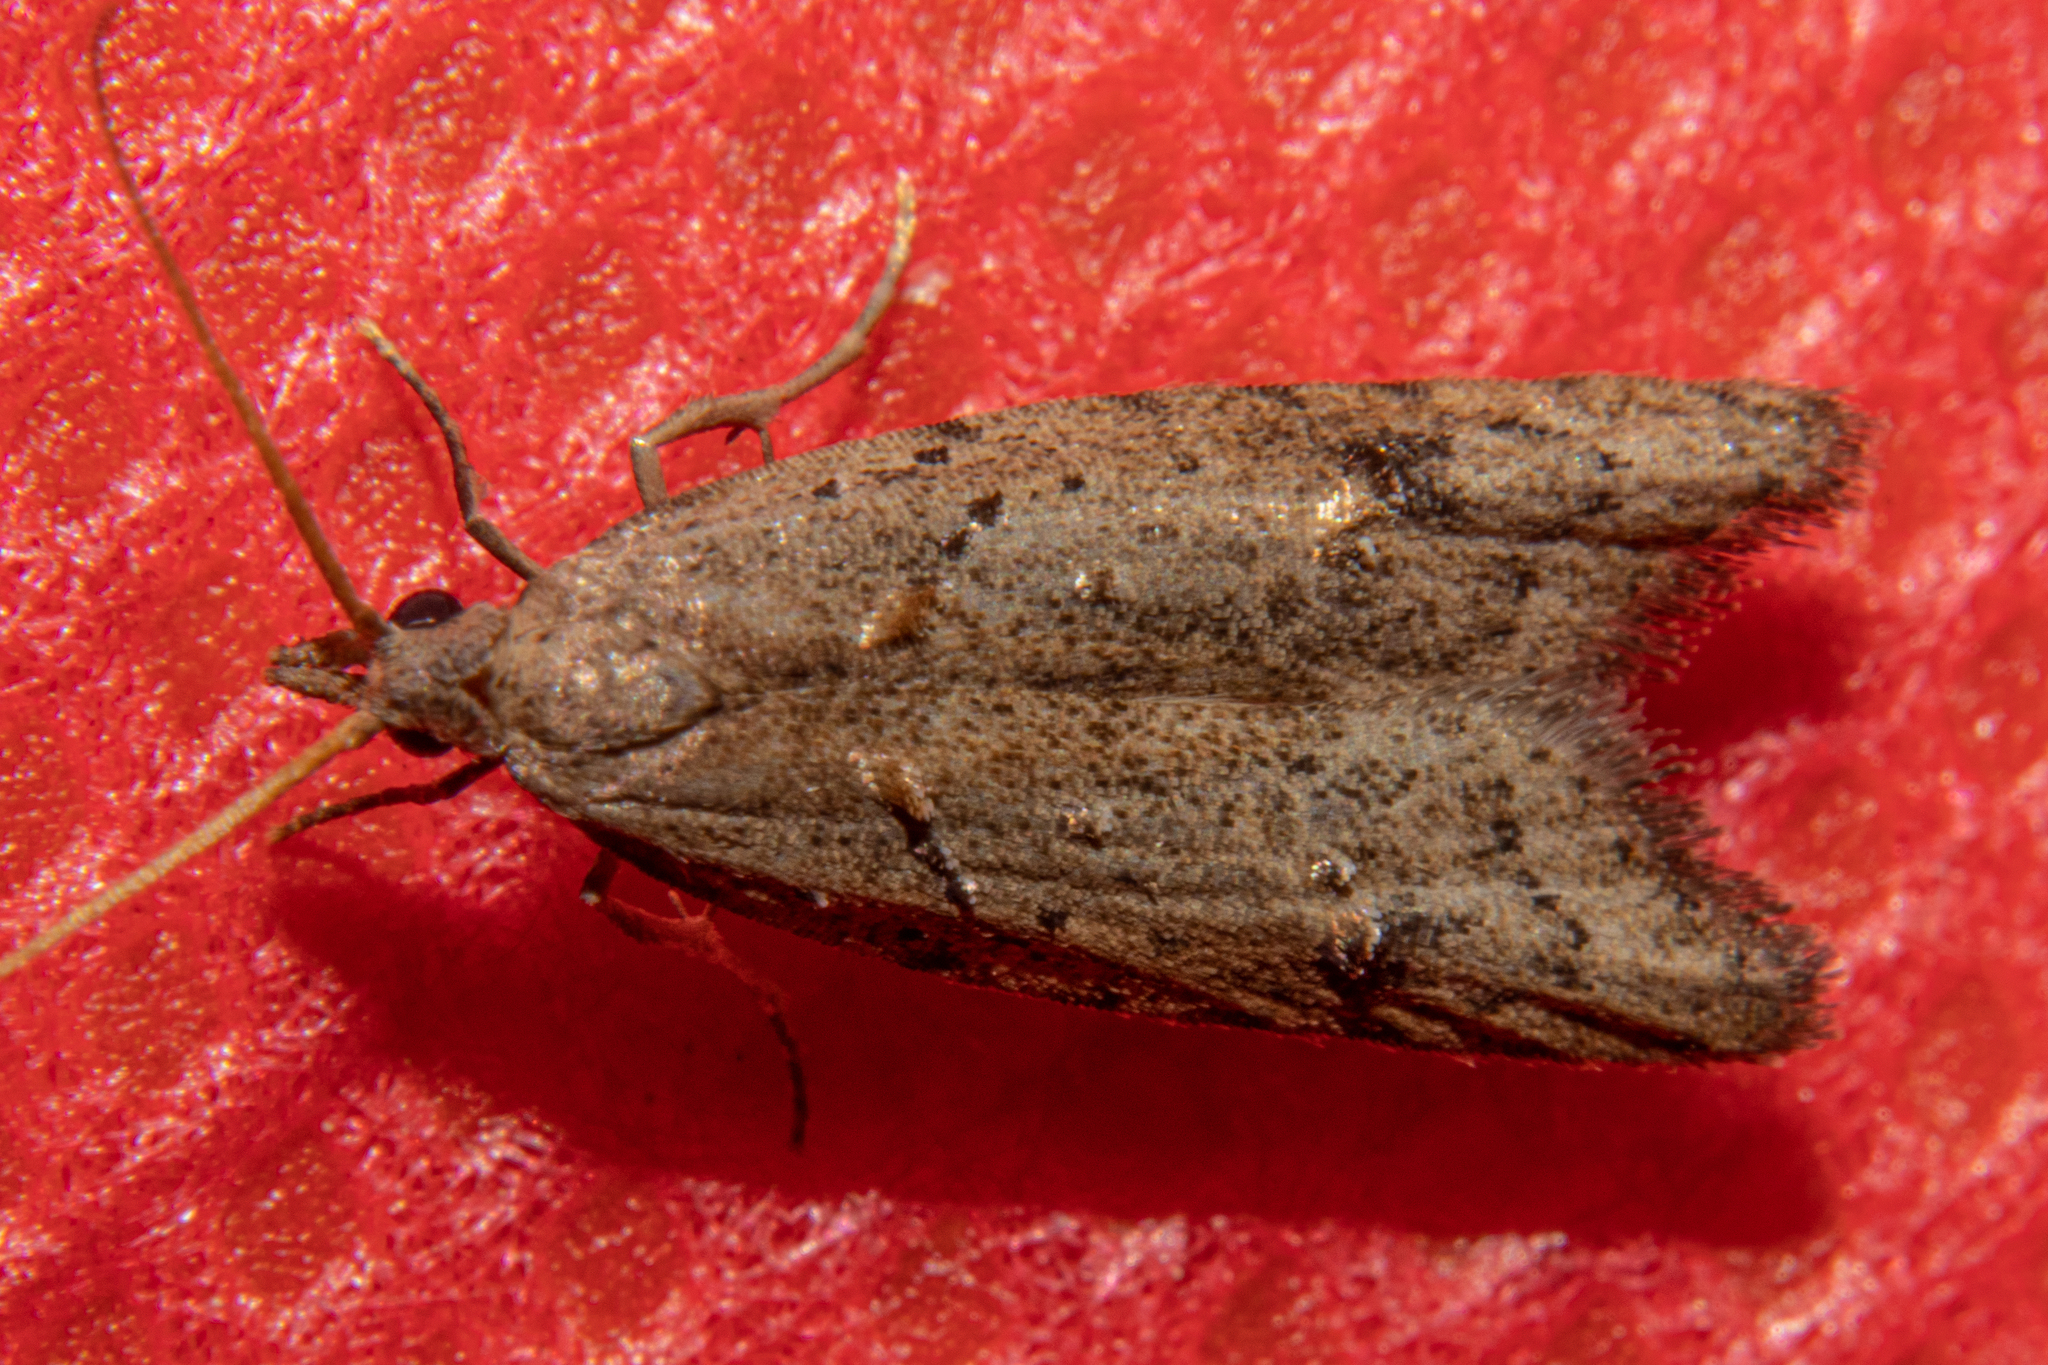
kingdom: Animalia
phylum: Arthropoda
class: Insecta
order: Lepidoptera
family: Carposinidae
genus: Carposina
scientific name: Carposina rubophaga
